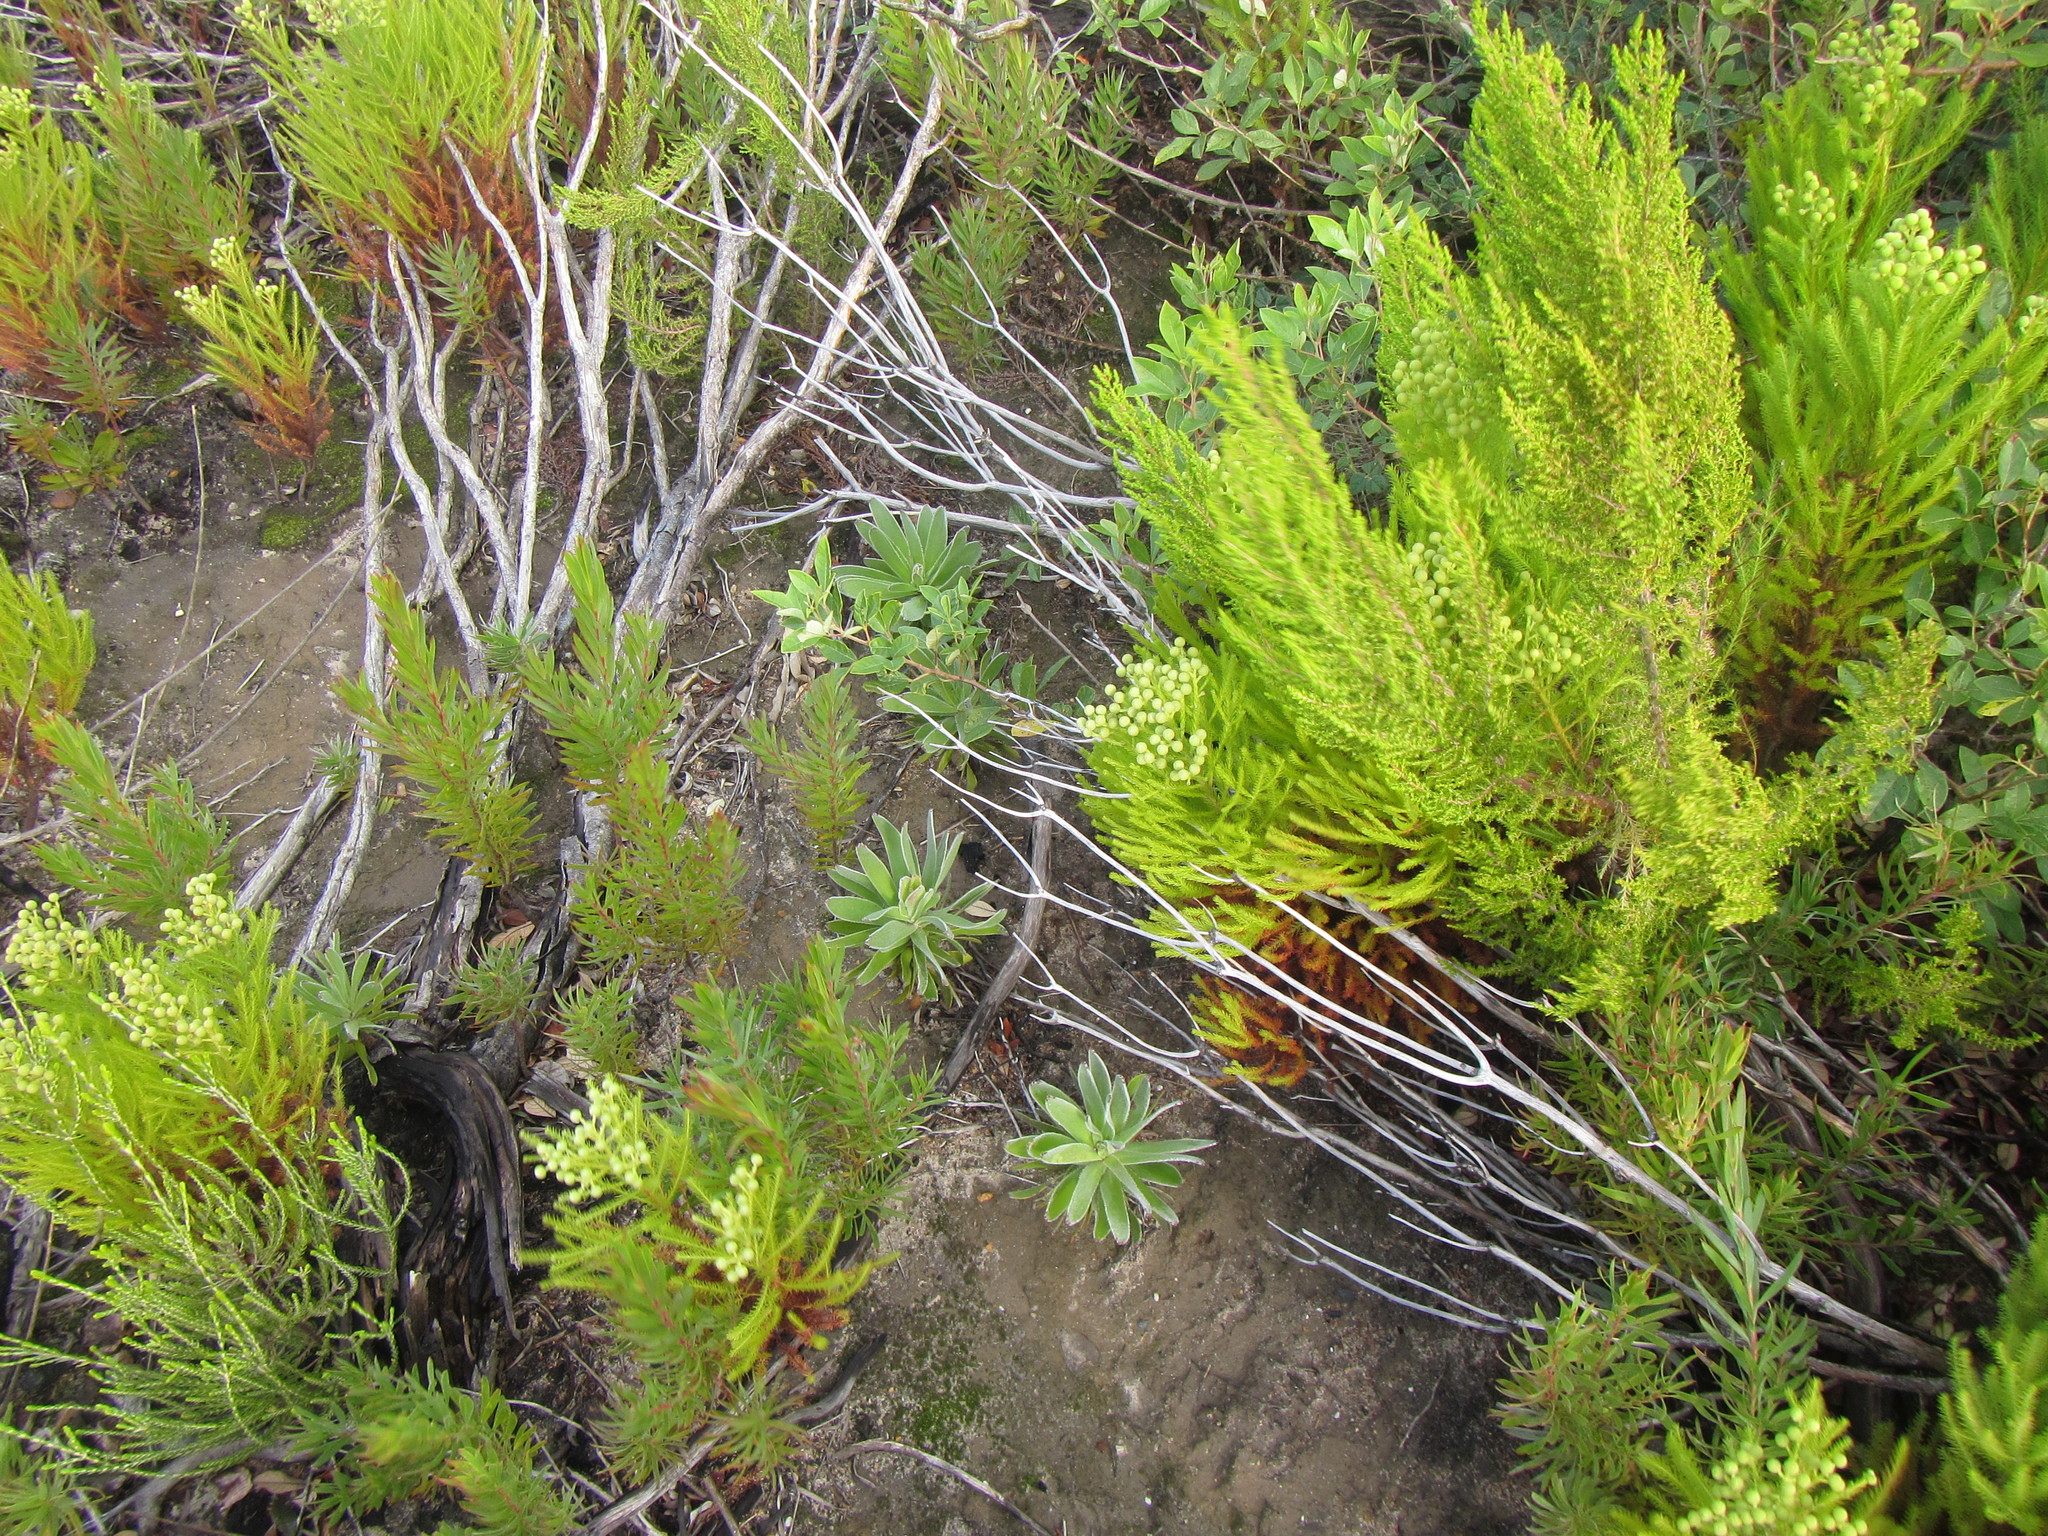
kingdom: Plantae
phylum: Tracheophyta
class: Magnoliopsida
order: Proteales
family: Proteaceae
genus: Mimetes
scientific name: Mimetes fimbriifolius
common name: Fringed bottlebrush
